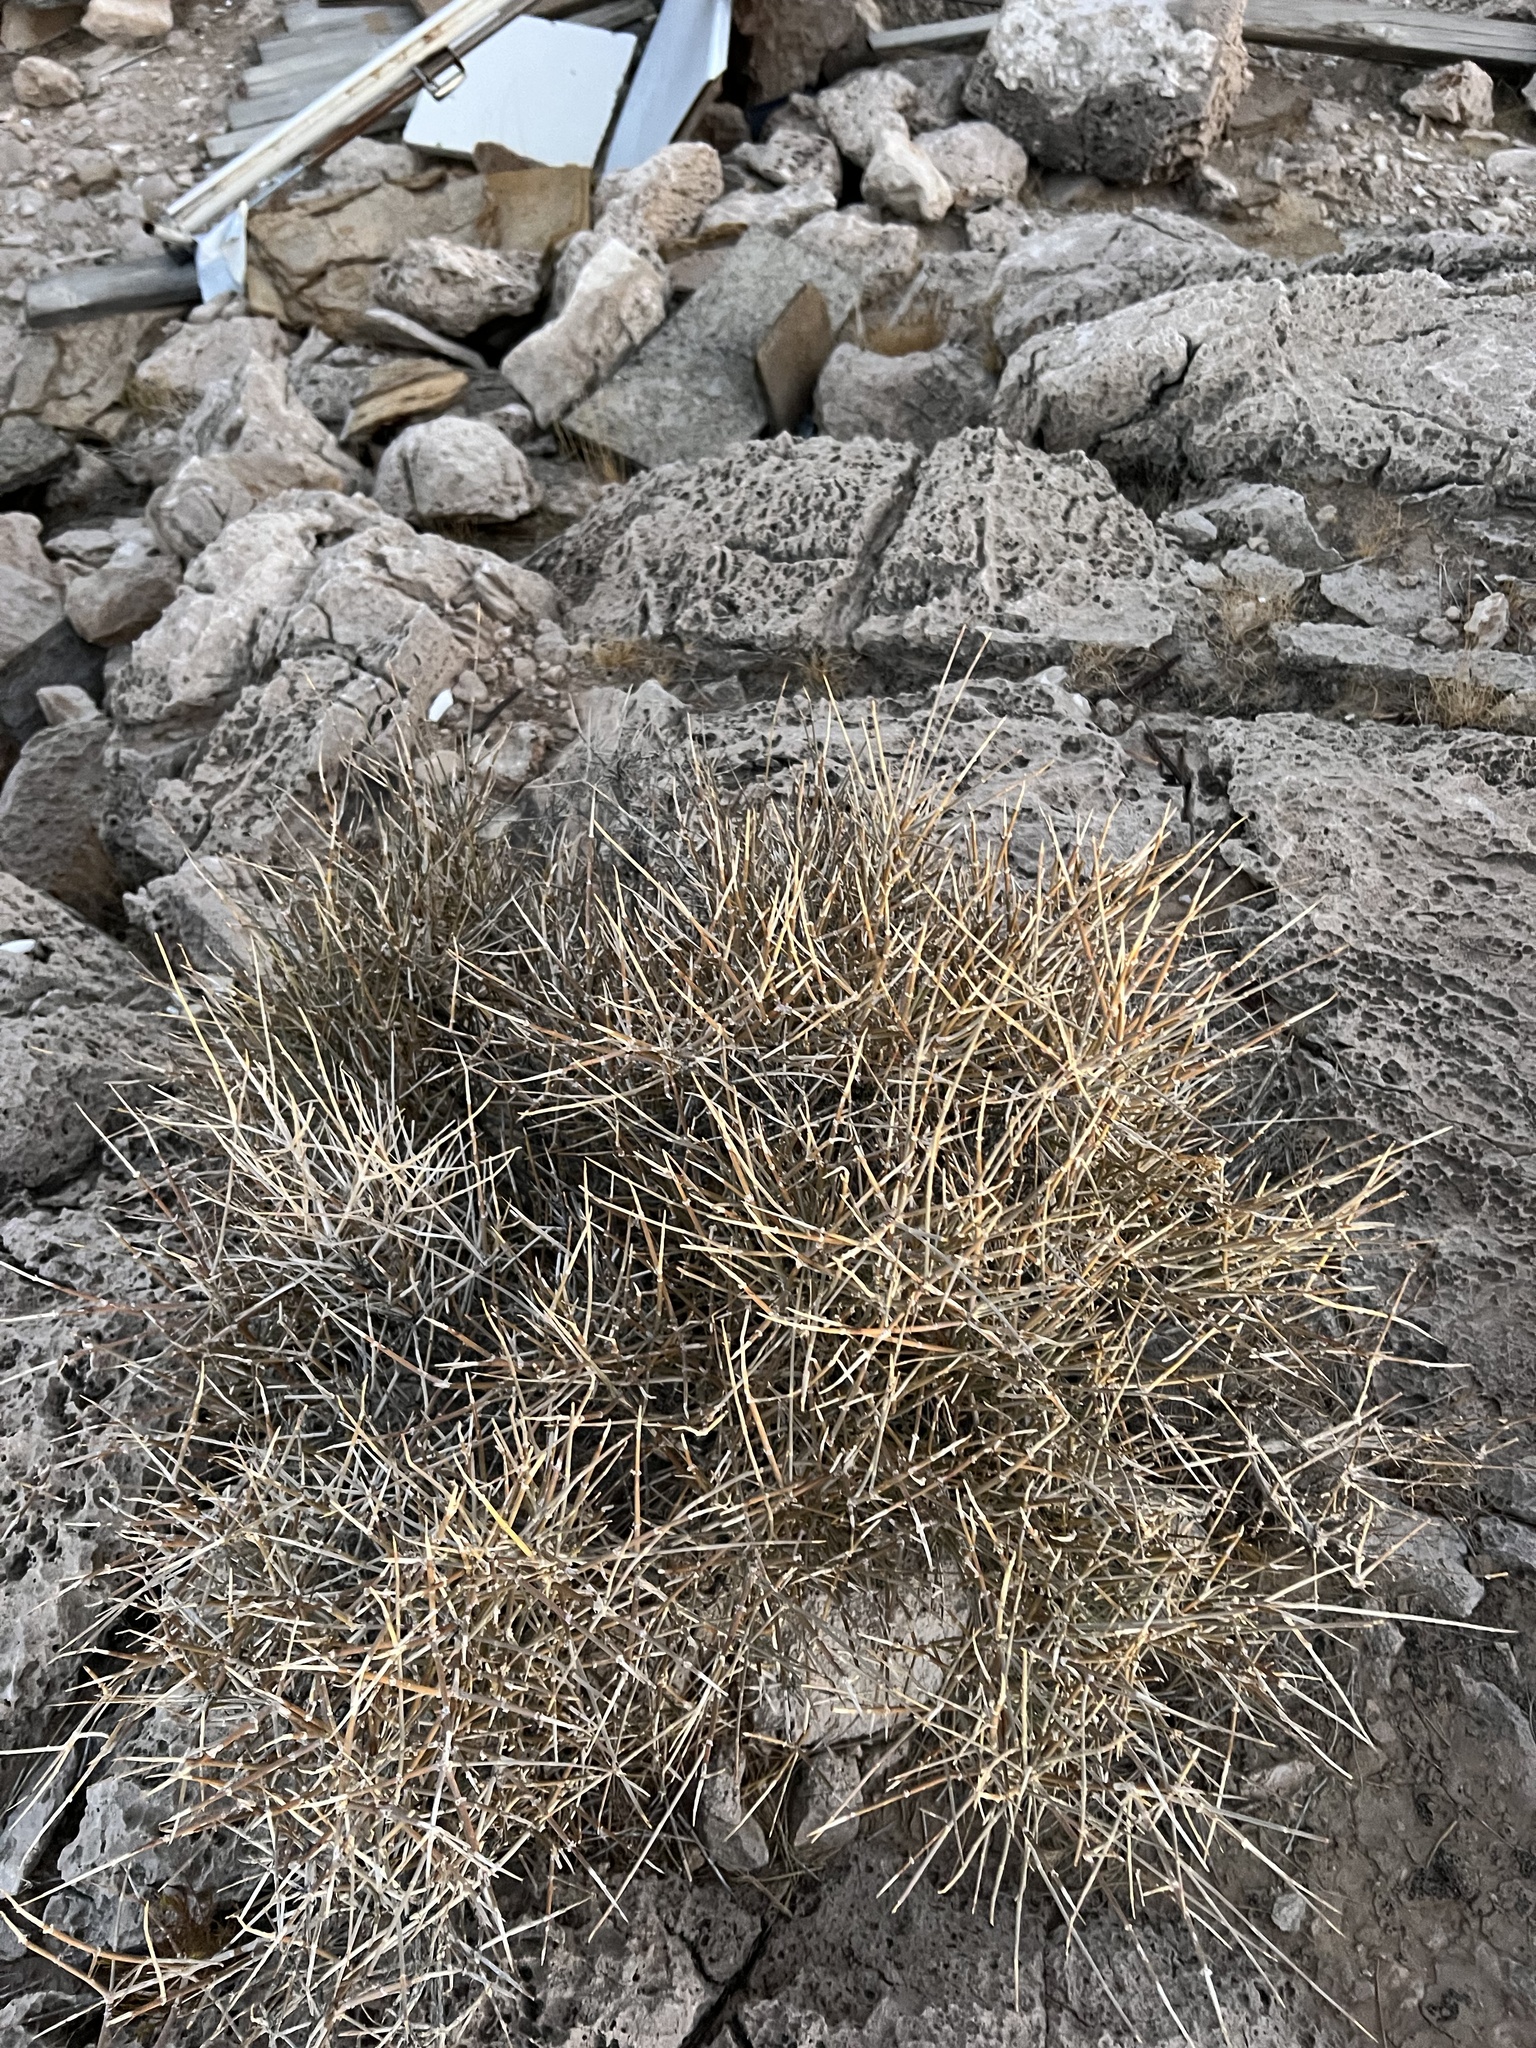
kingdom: Plantae
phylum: Tracheophyta
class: Gnetopsida
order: Ephedrales
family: Ephedraceae
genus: Ephedra
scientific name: Ephedra nevadensis
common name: Gray ephedra
